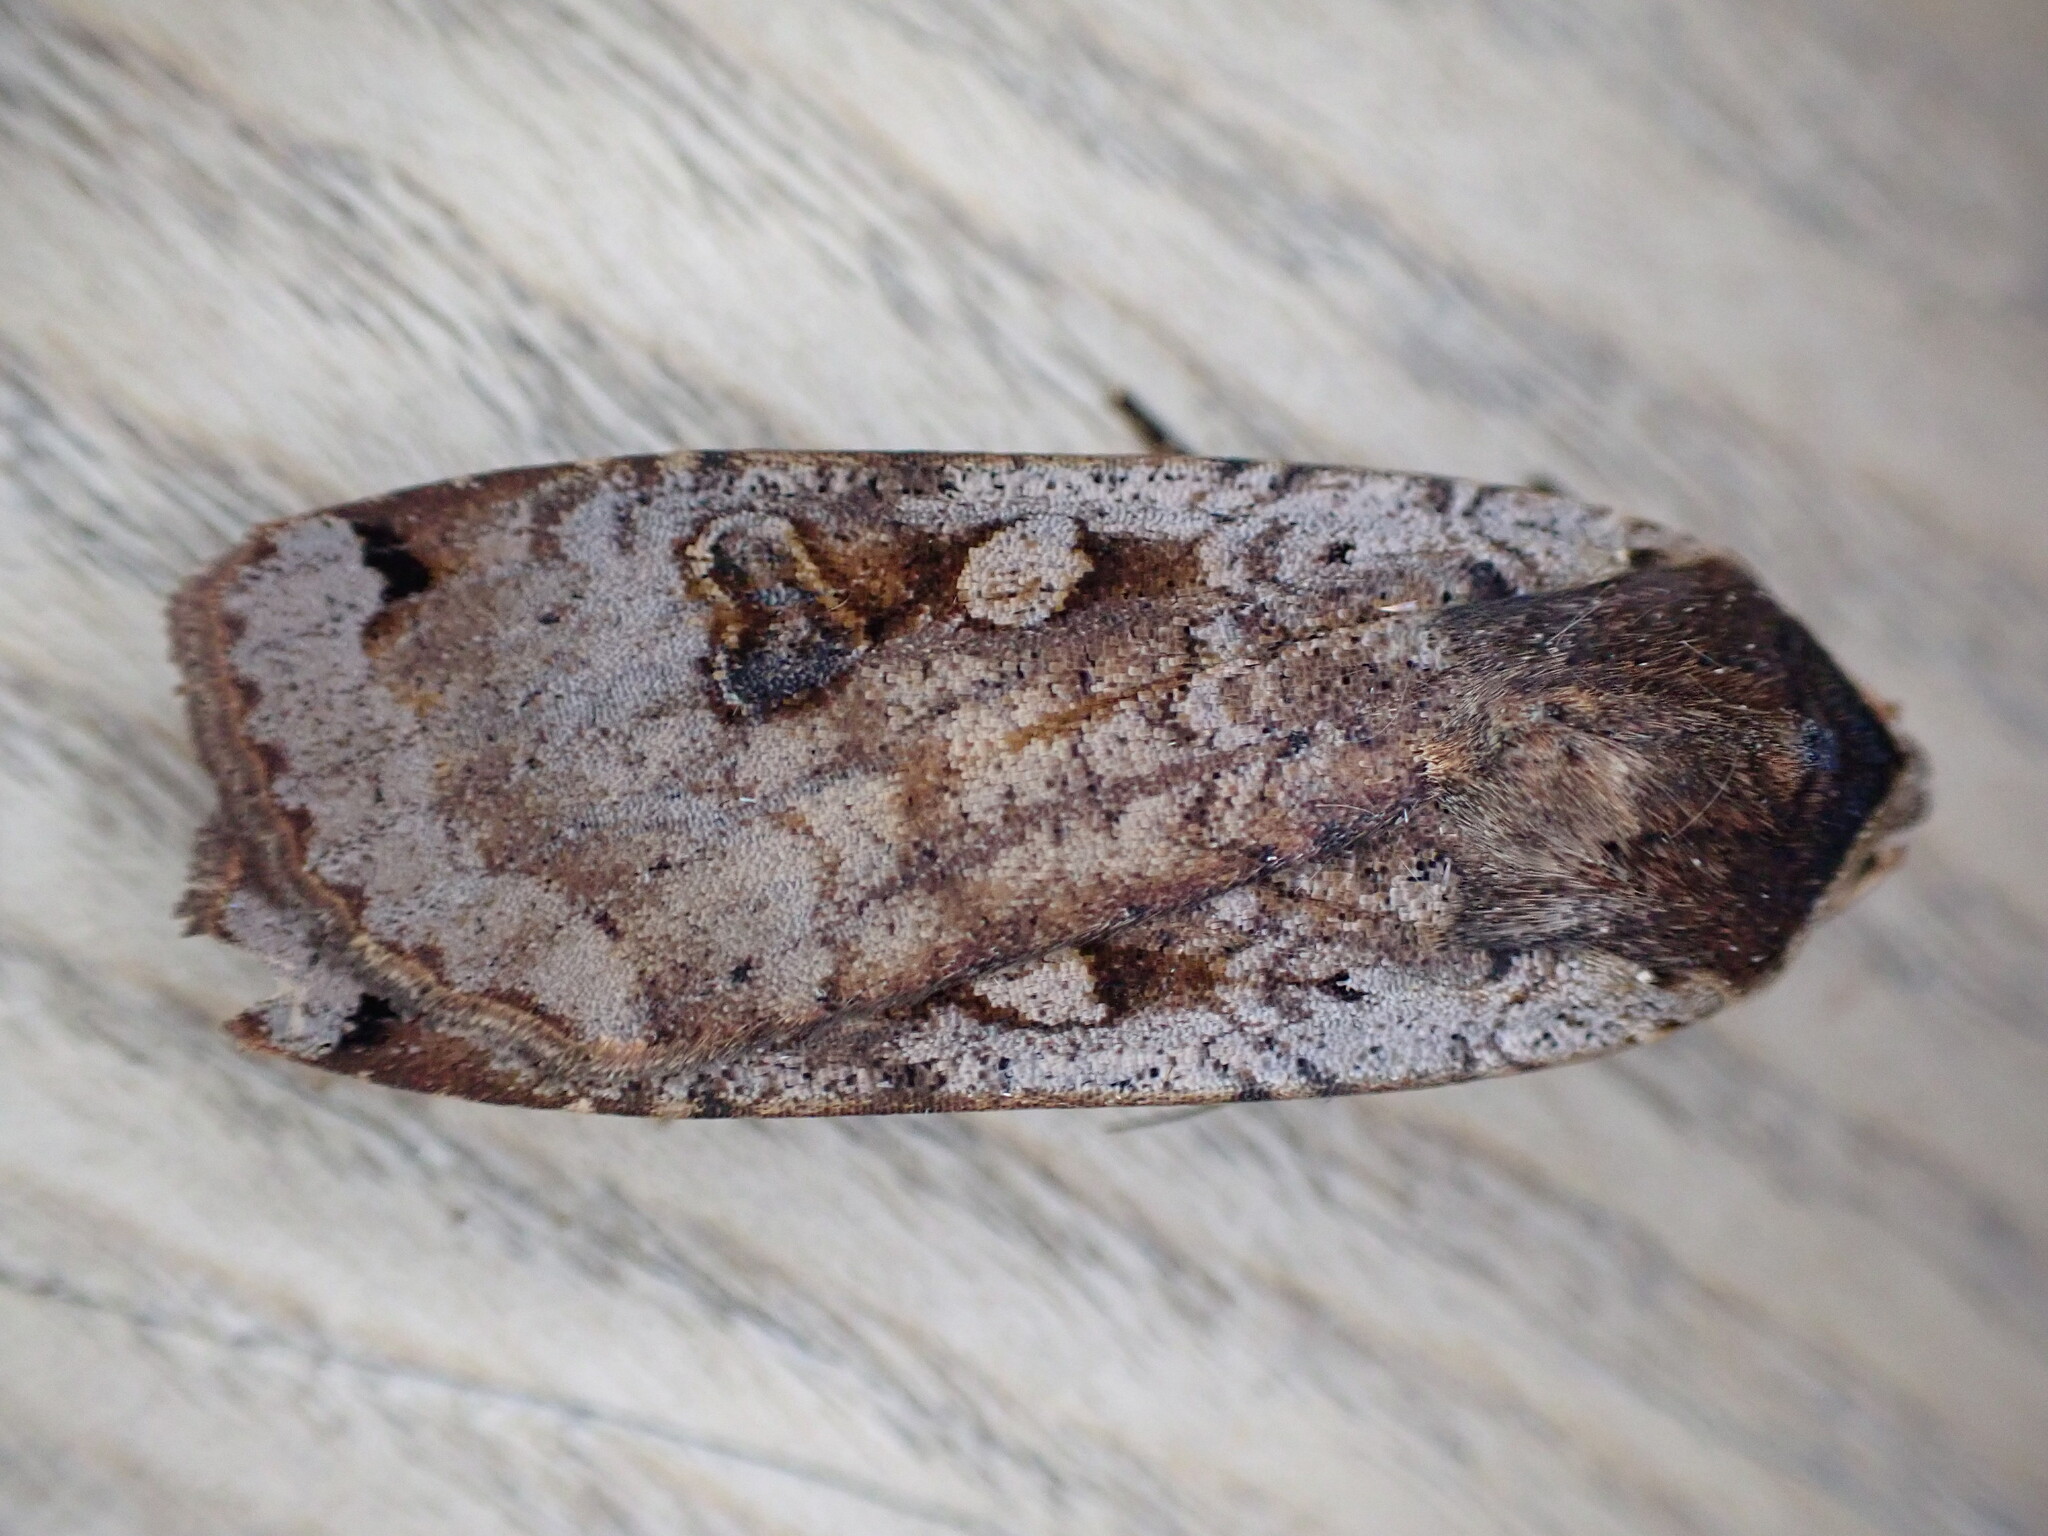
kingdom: Animalia
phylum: Arthropoda
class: Insecta
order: Lepidoptera
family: Noctuidae
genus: Noctua
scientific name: Noctua pronuba
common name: Large yellow underwing
